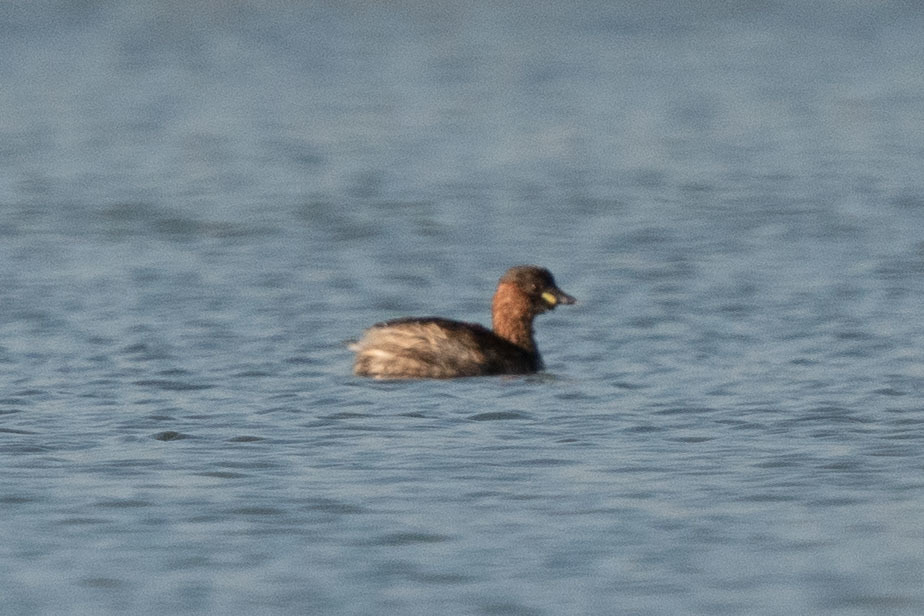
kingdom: Animalia
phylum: Chordata
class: Aves
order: Podicipediformes
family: Podicipedidae
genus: Tachybaptus
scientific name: Tachybaptus ruficollis
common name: Little grebe
